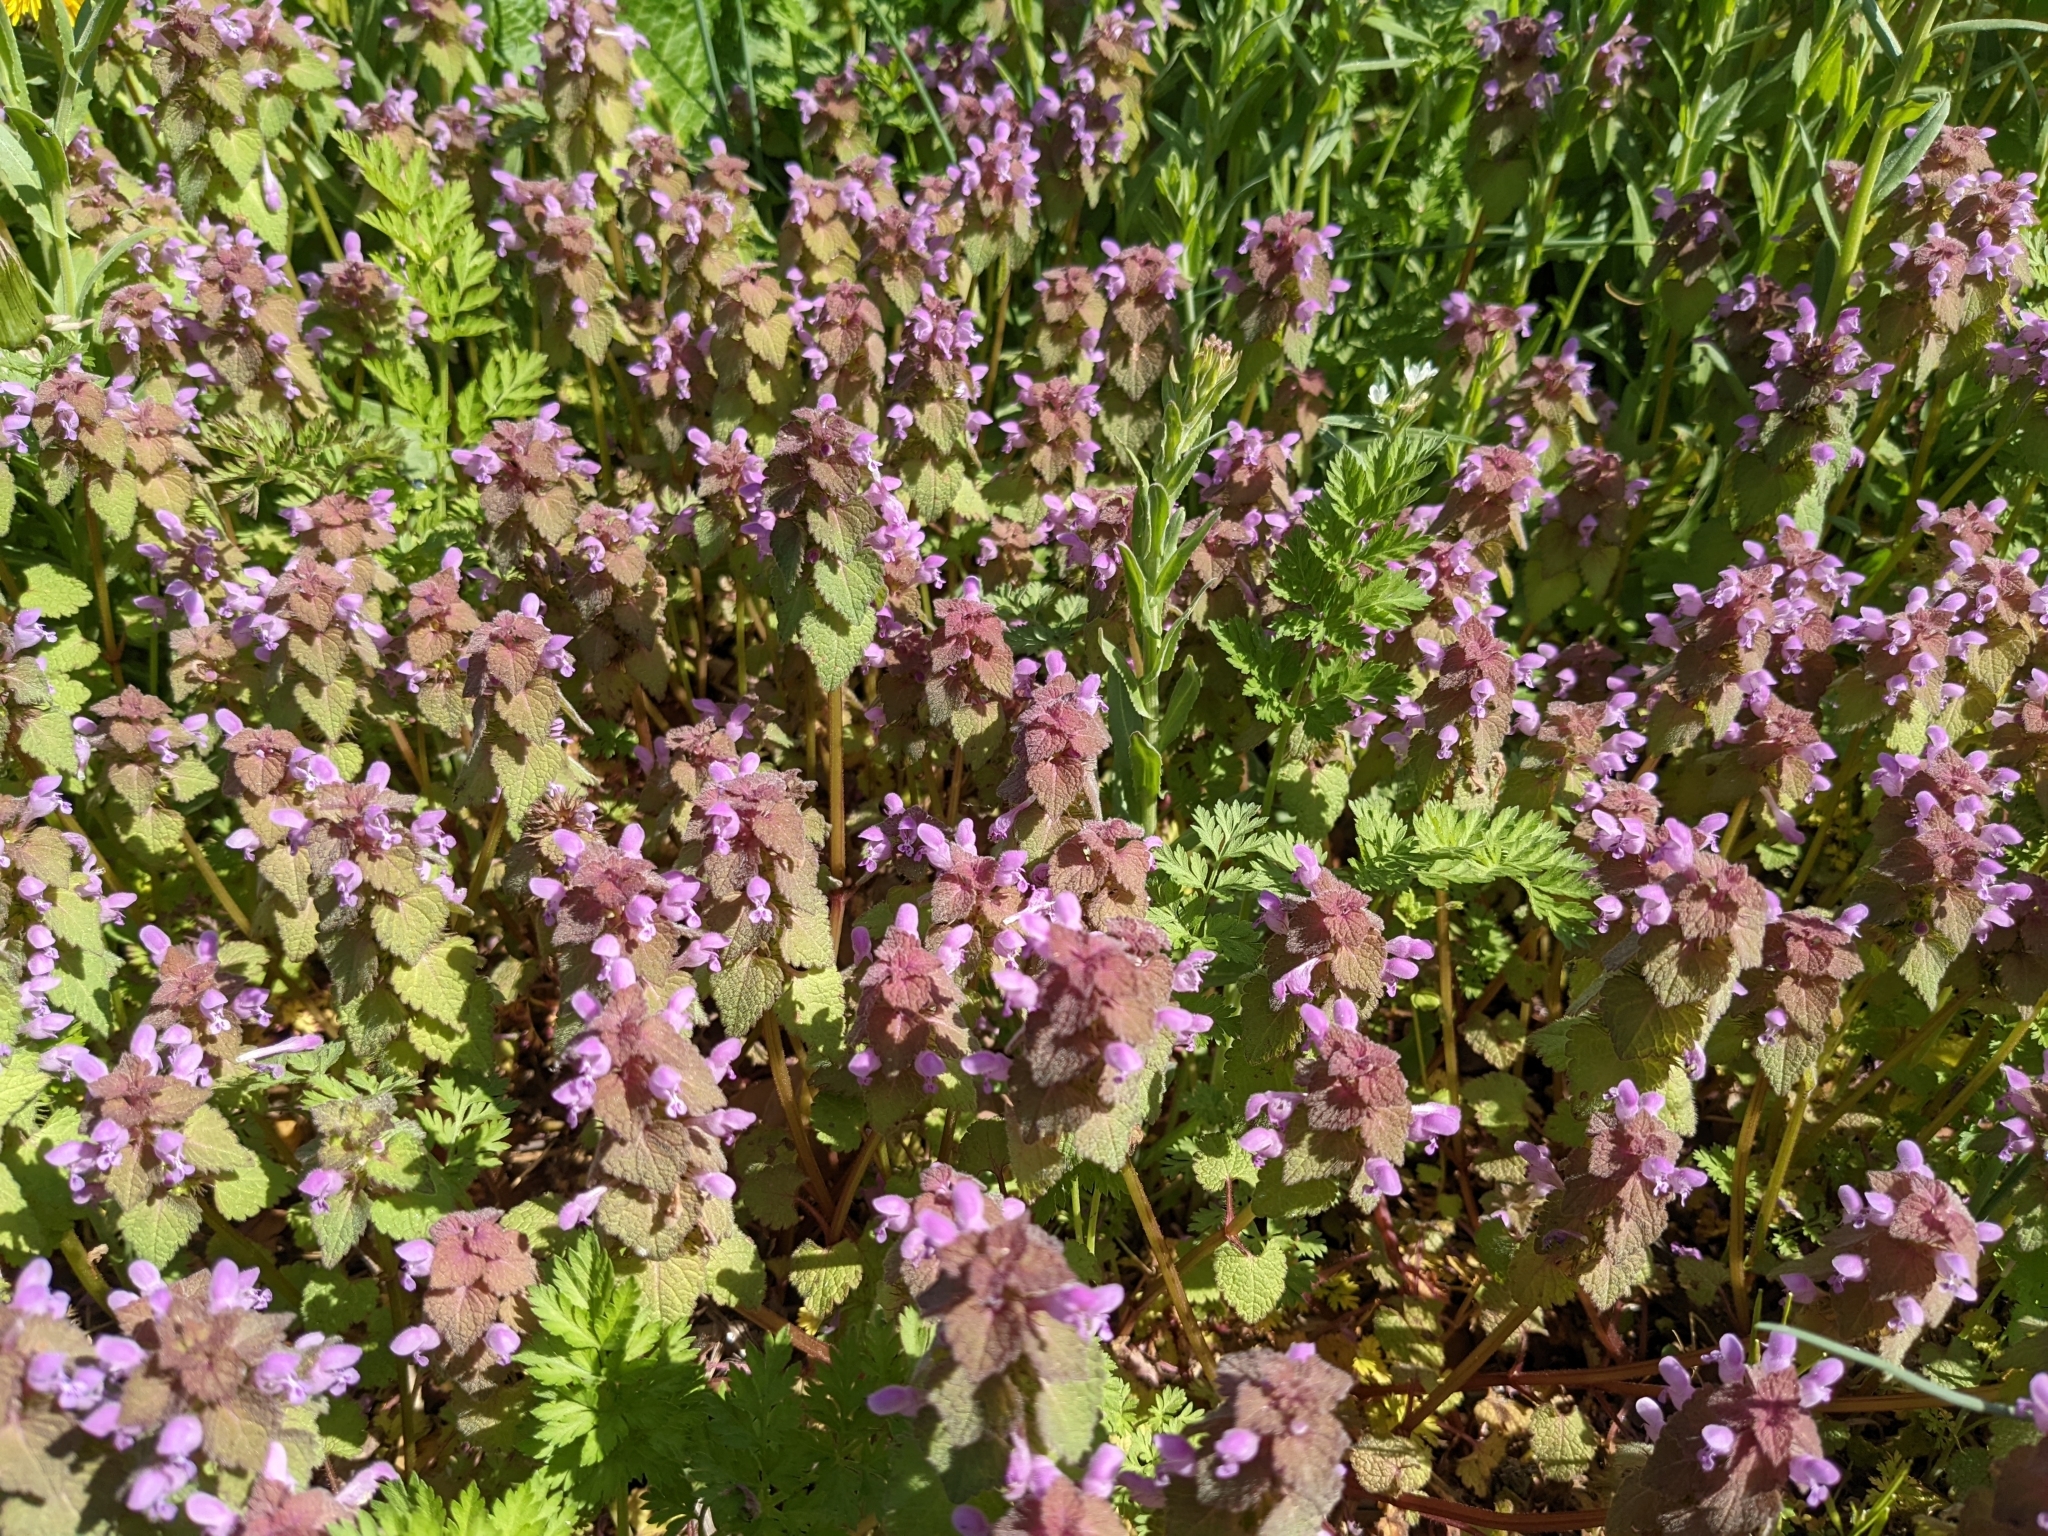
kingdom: Plantae
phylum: Tracheophyta
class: Magnoliopsida
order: Lamiales
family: Lamiaceae
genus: Lamium
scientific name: Lamium purpureum
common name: Red dead-nettle
